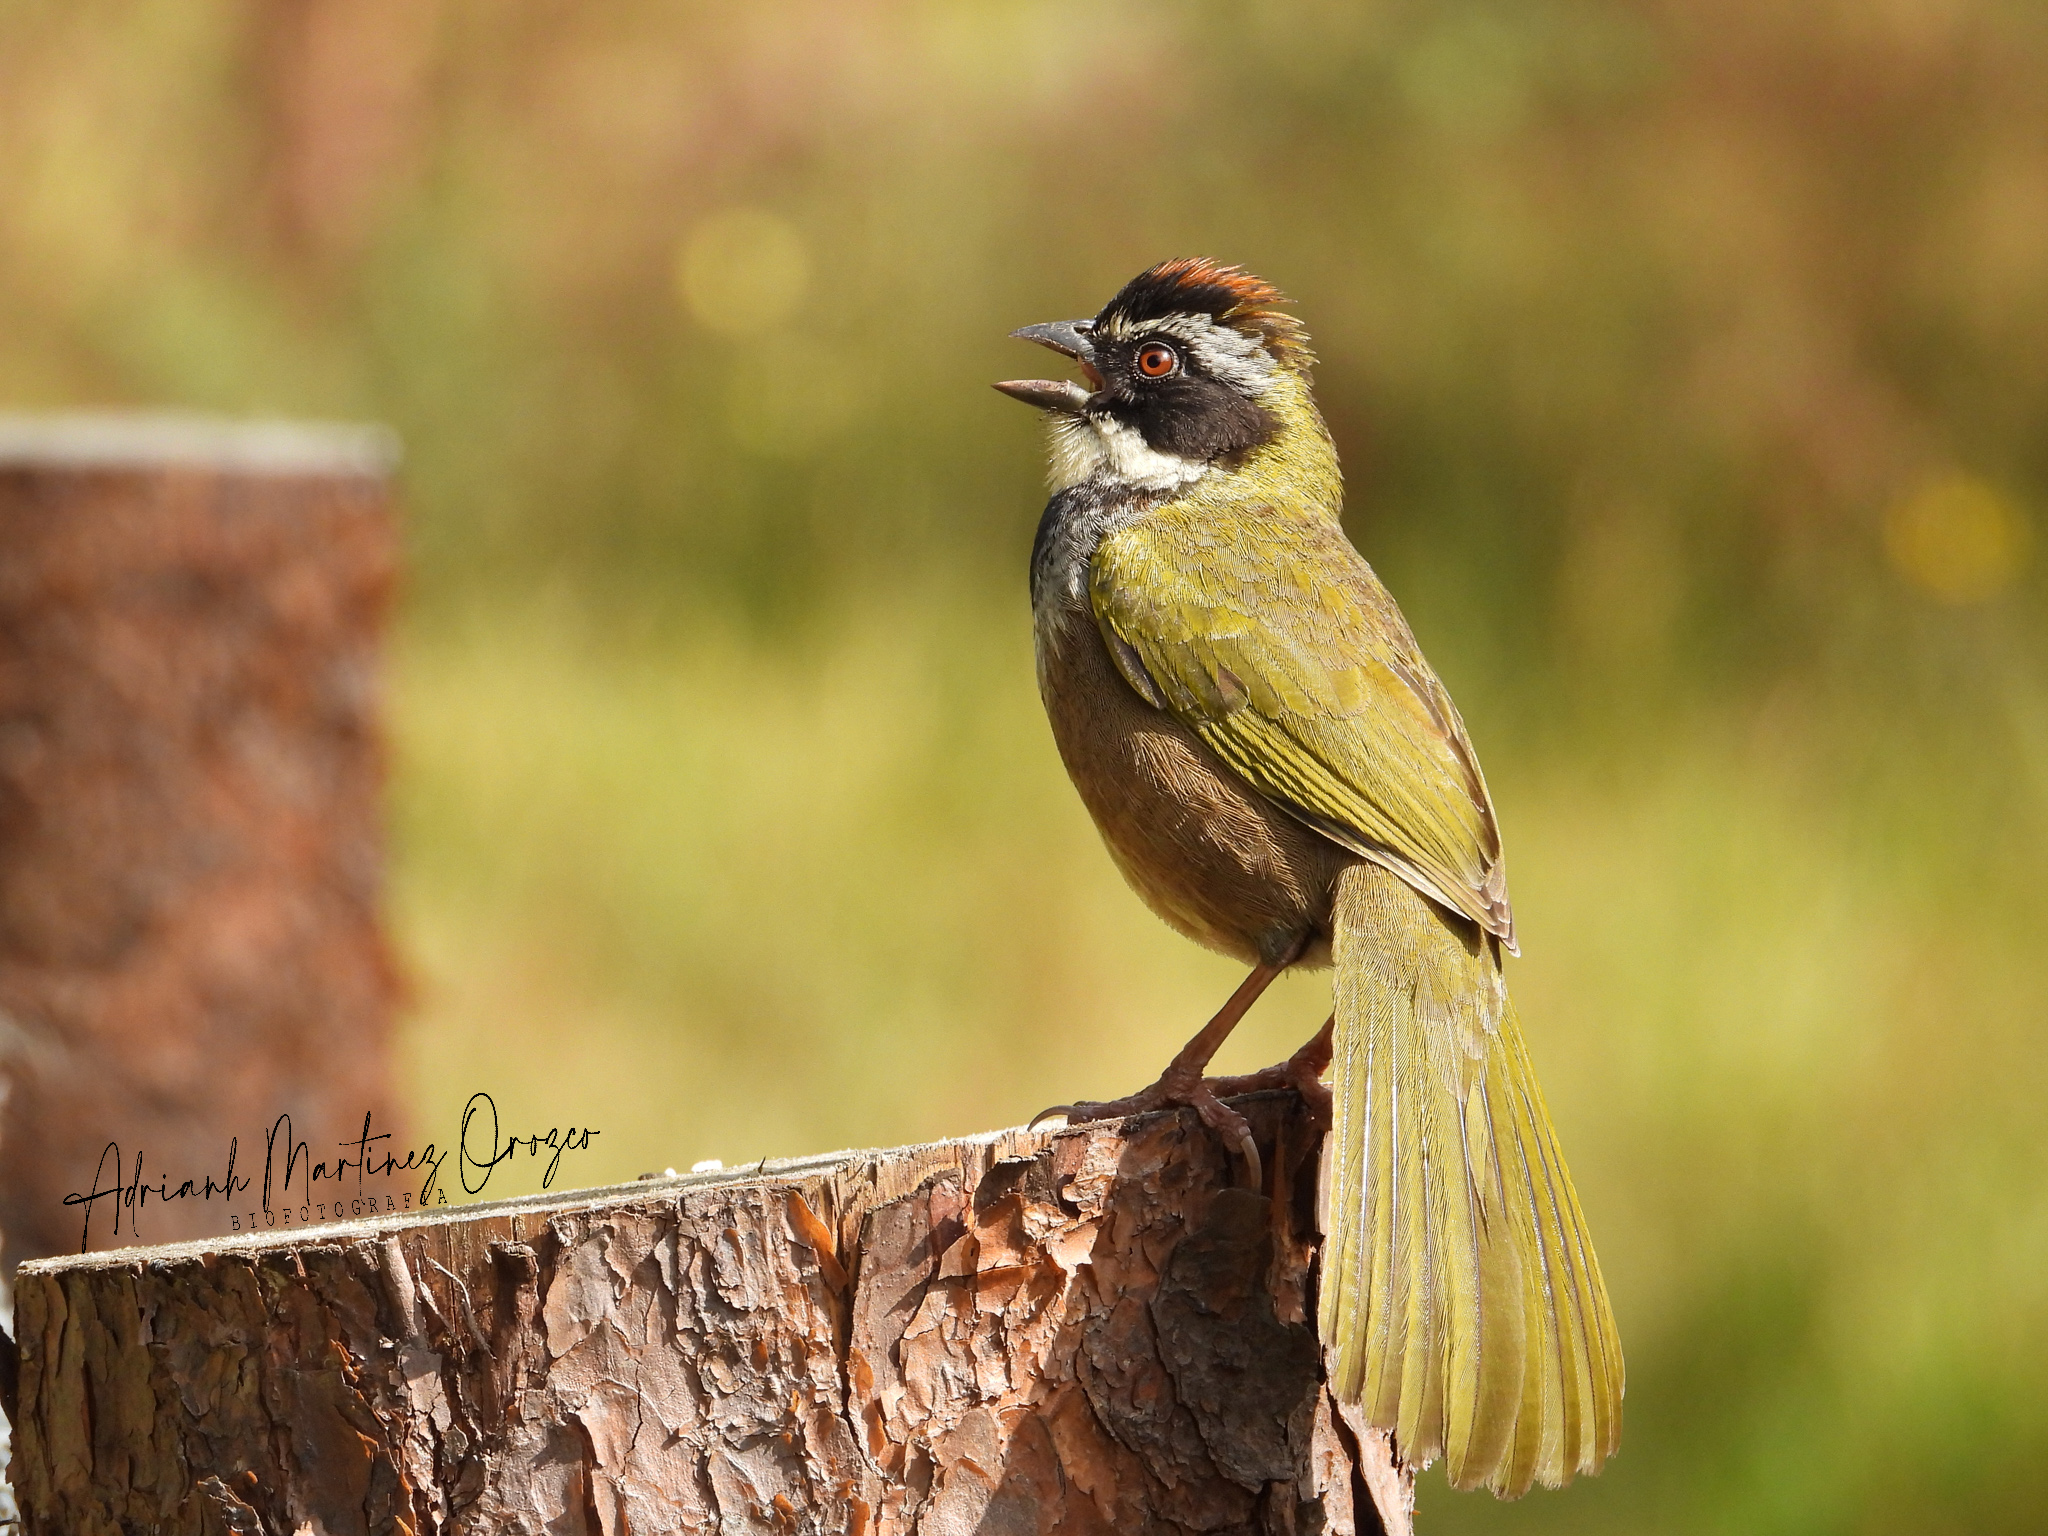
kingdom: Animalia
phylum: Chordata
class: Aves
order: Passeriformes
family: Passerellidae
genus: Pipilo
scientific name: Pipilo ocai
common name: Collared towhee
